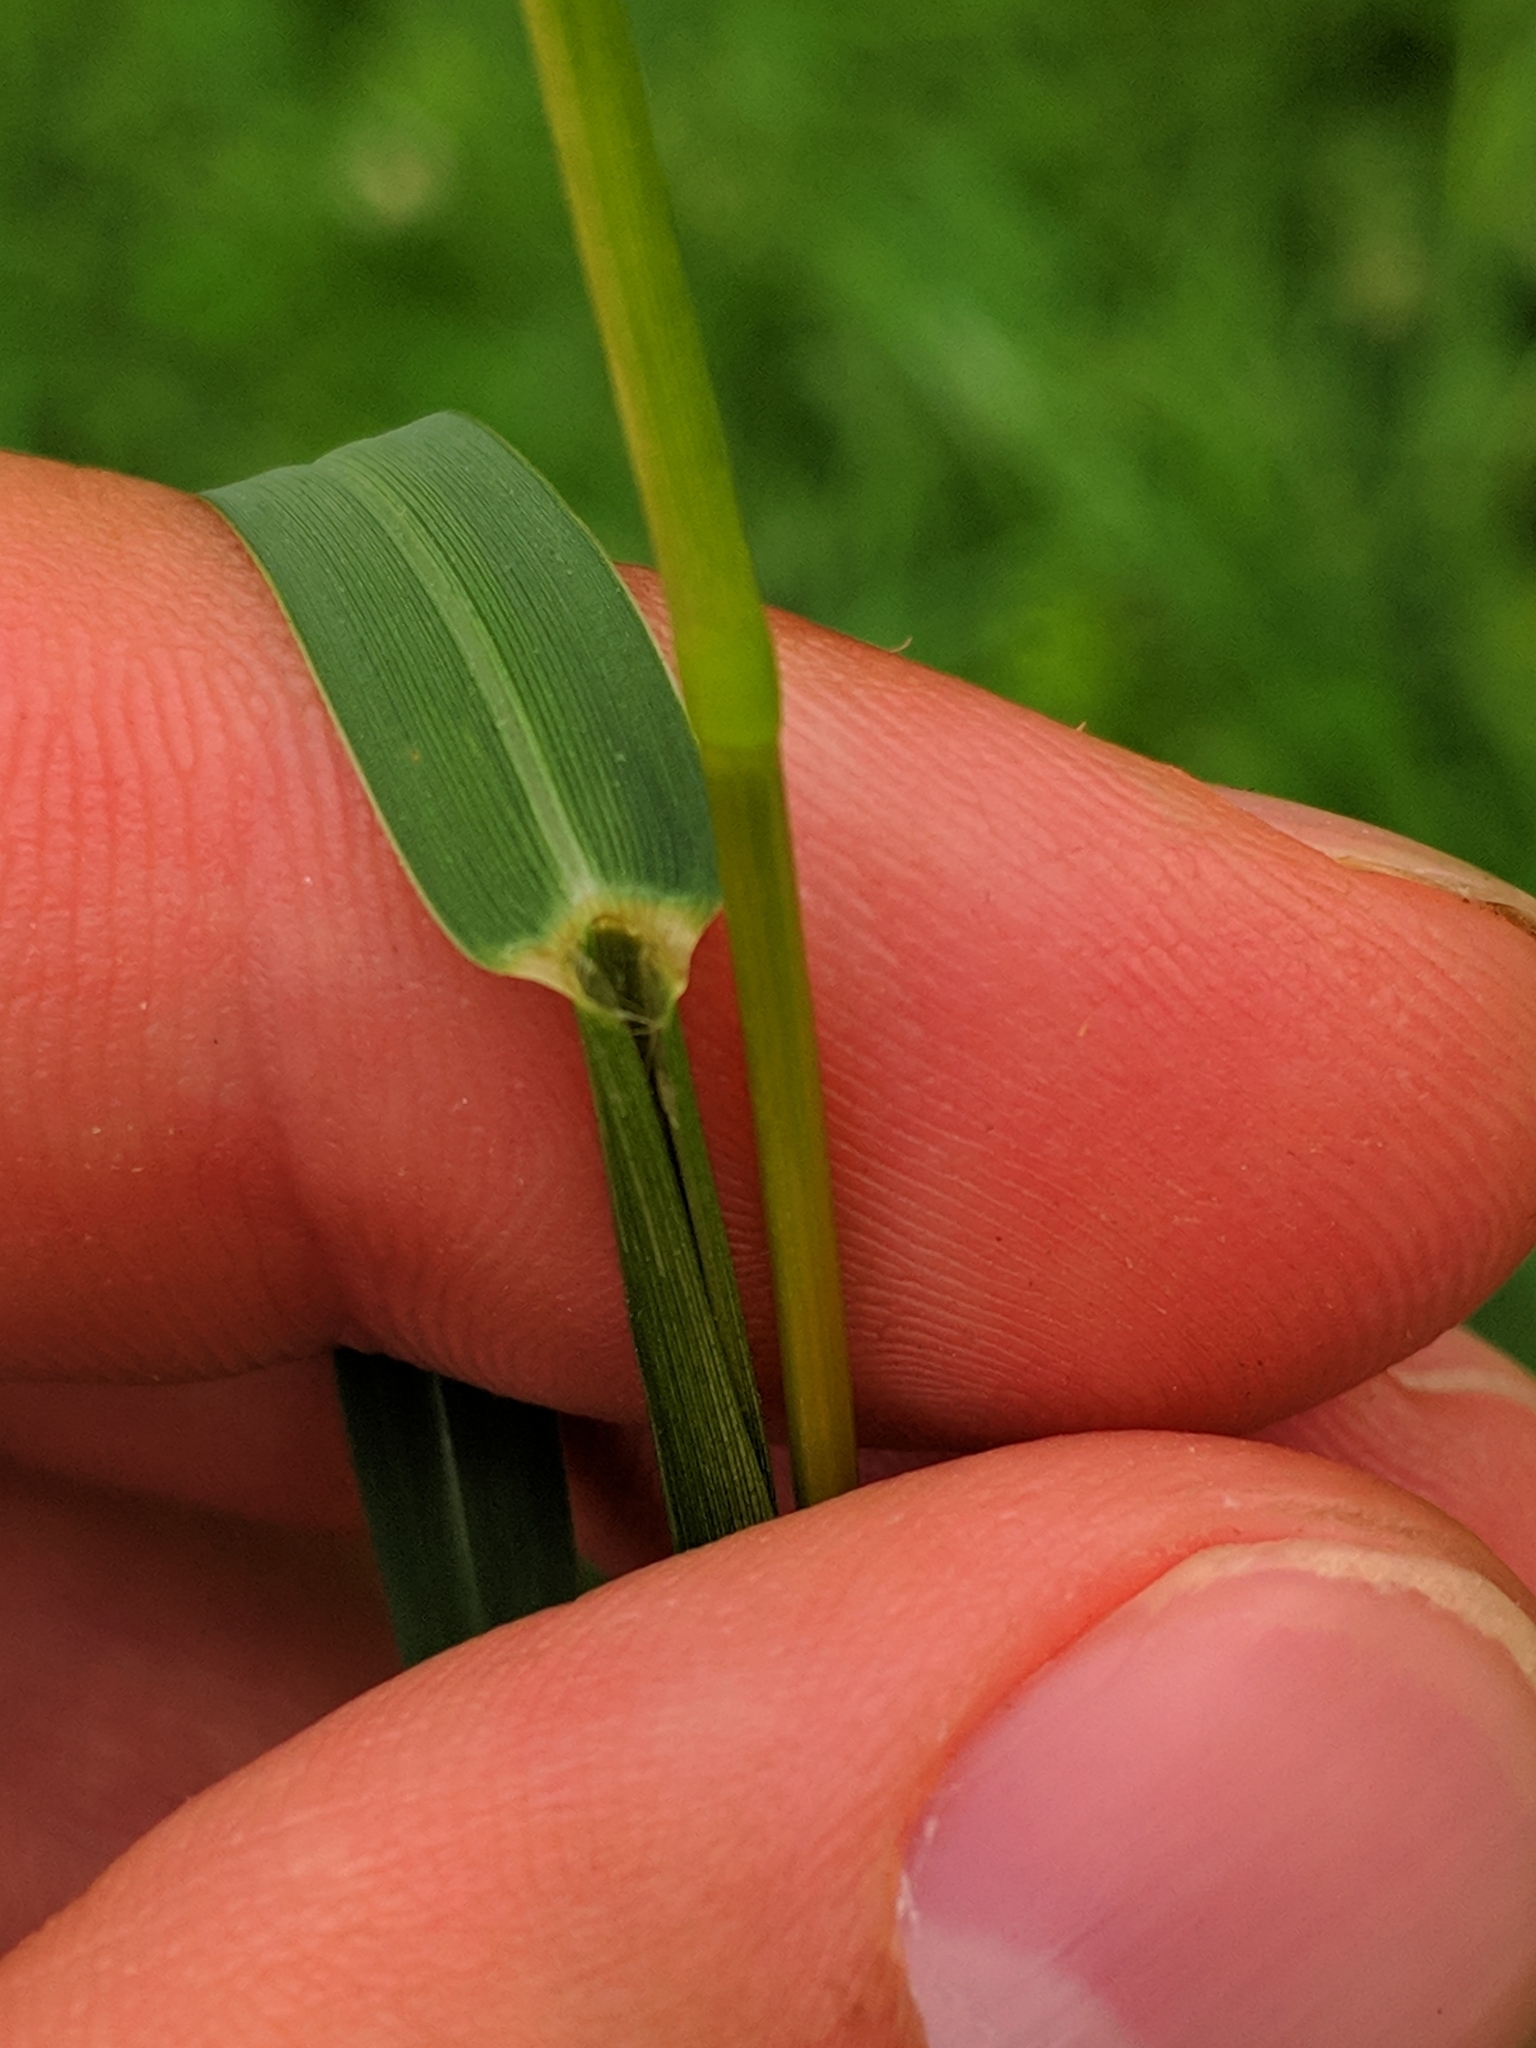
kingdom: Plantae
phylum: Tracheophyta
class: Liliopsida
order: Poales
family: Poaceae
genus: Paspalum
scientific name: Paspalum distichum
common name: Knotgrass
